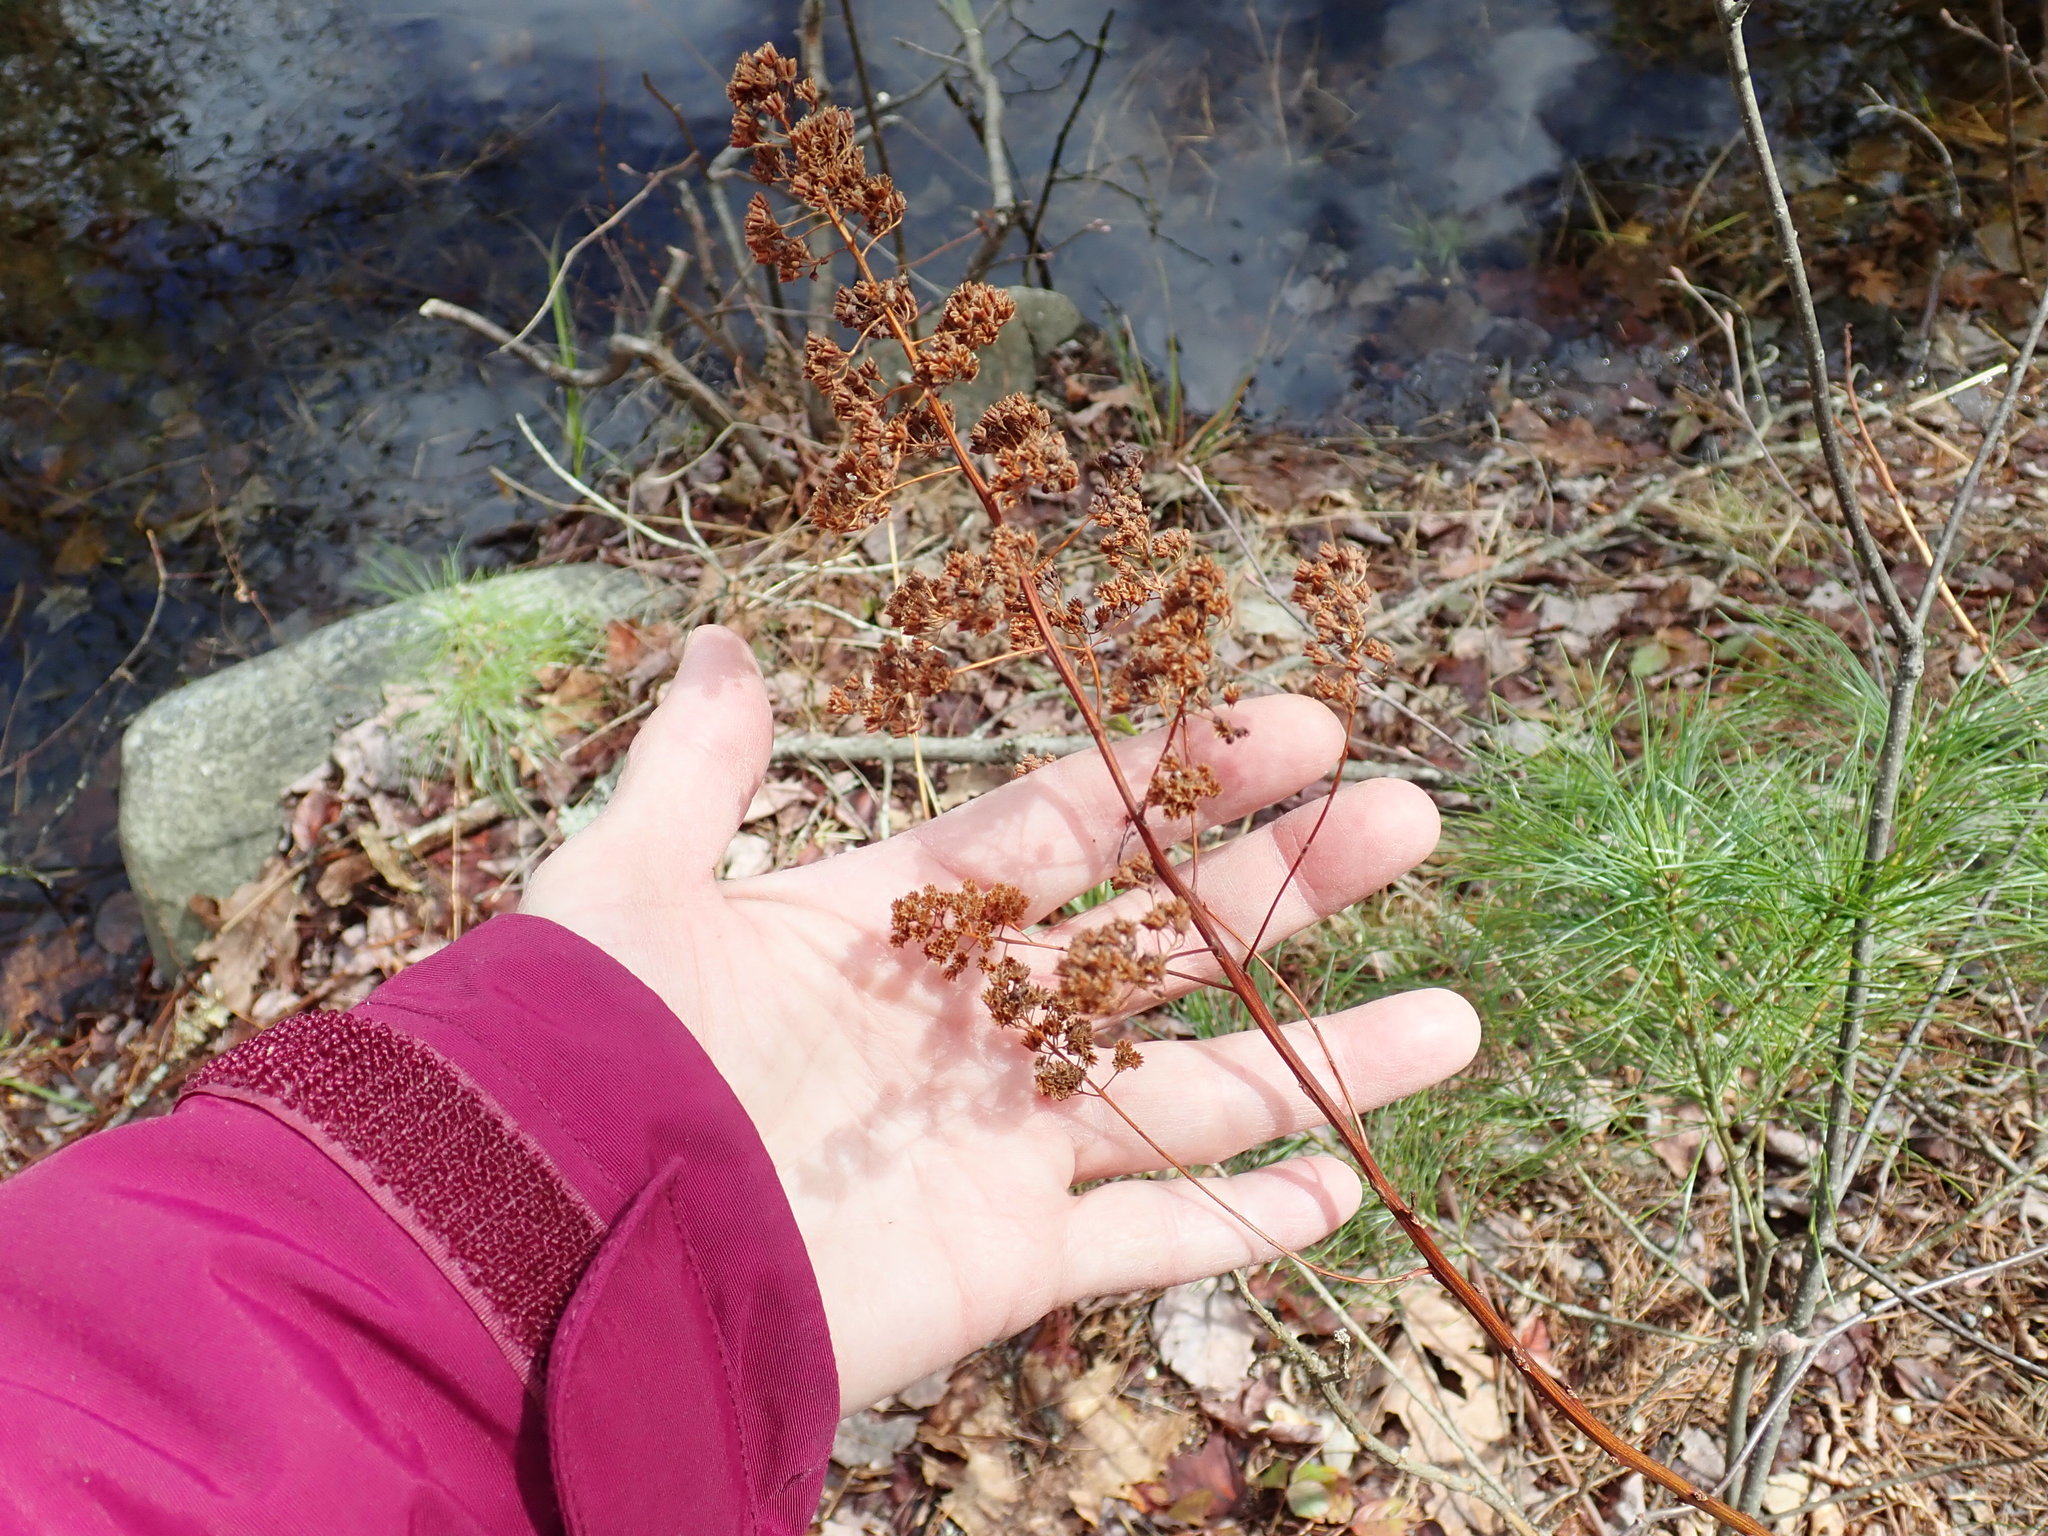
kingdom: Plantae
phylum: Tracheophyta
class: Magnoliopsida
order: Rosales
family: Rosaceae
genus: Spiraea
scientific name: Spiraea alba
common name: Pale bridewort
